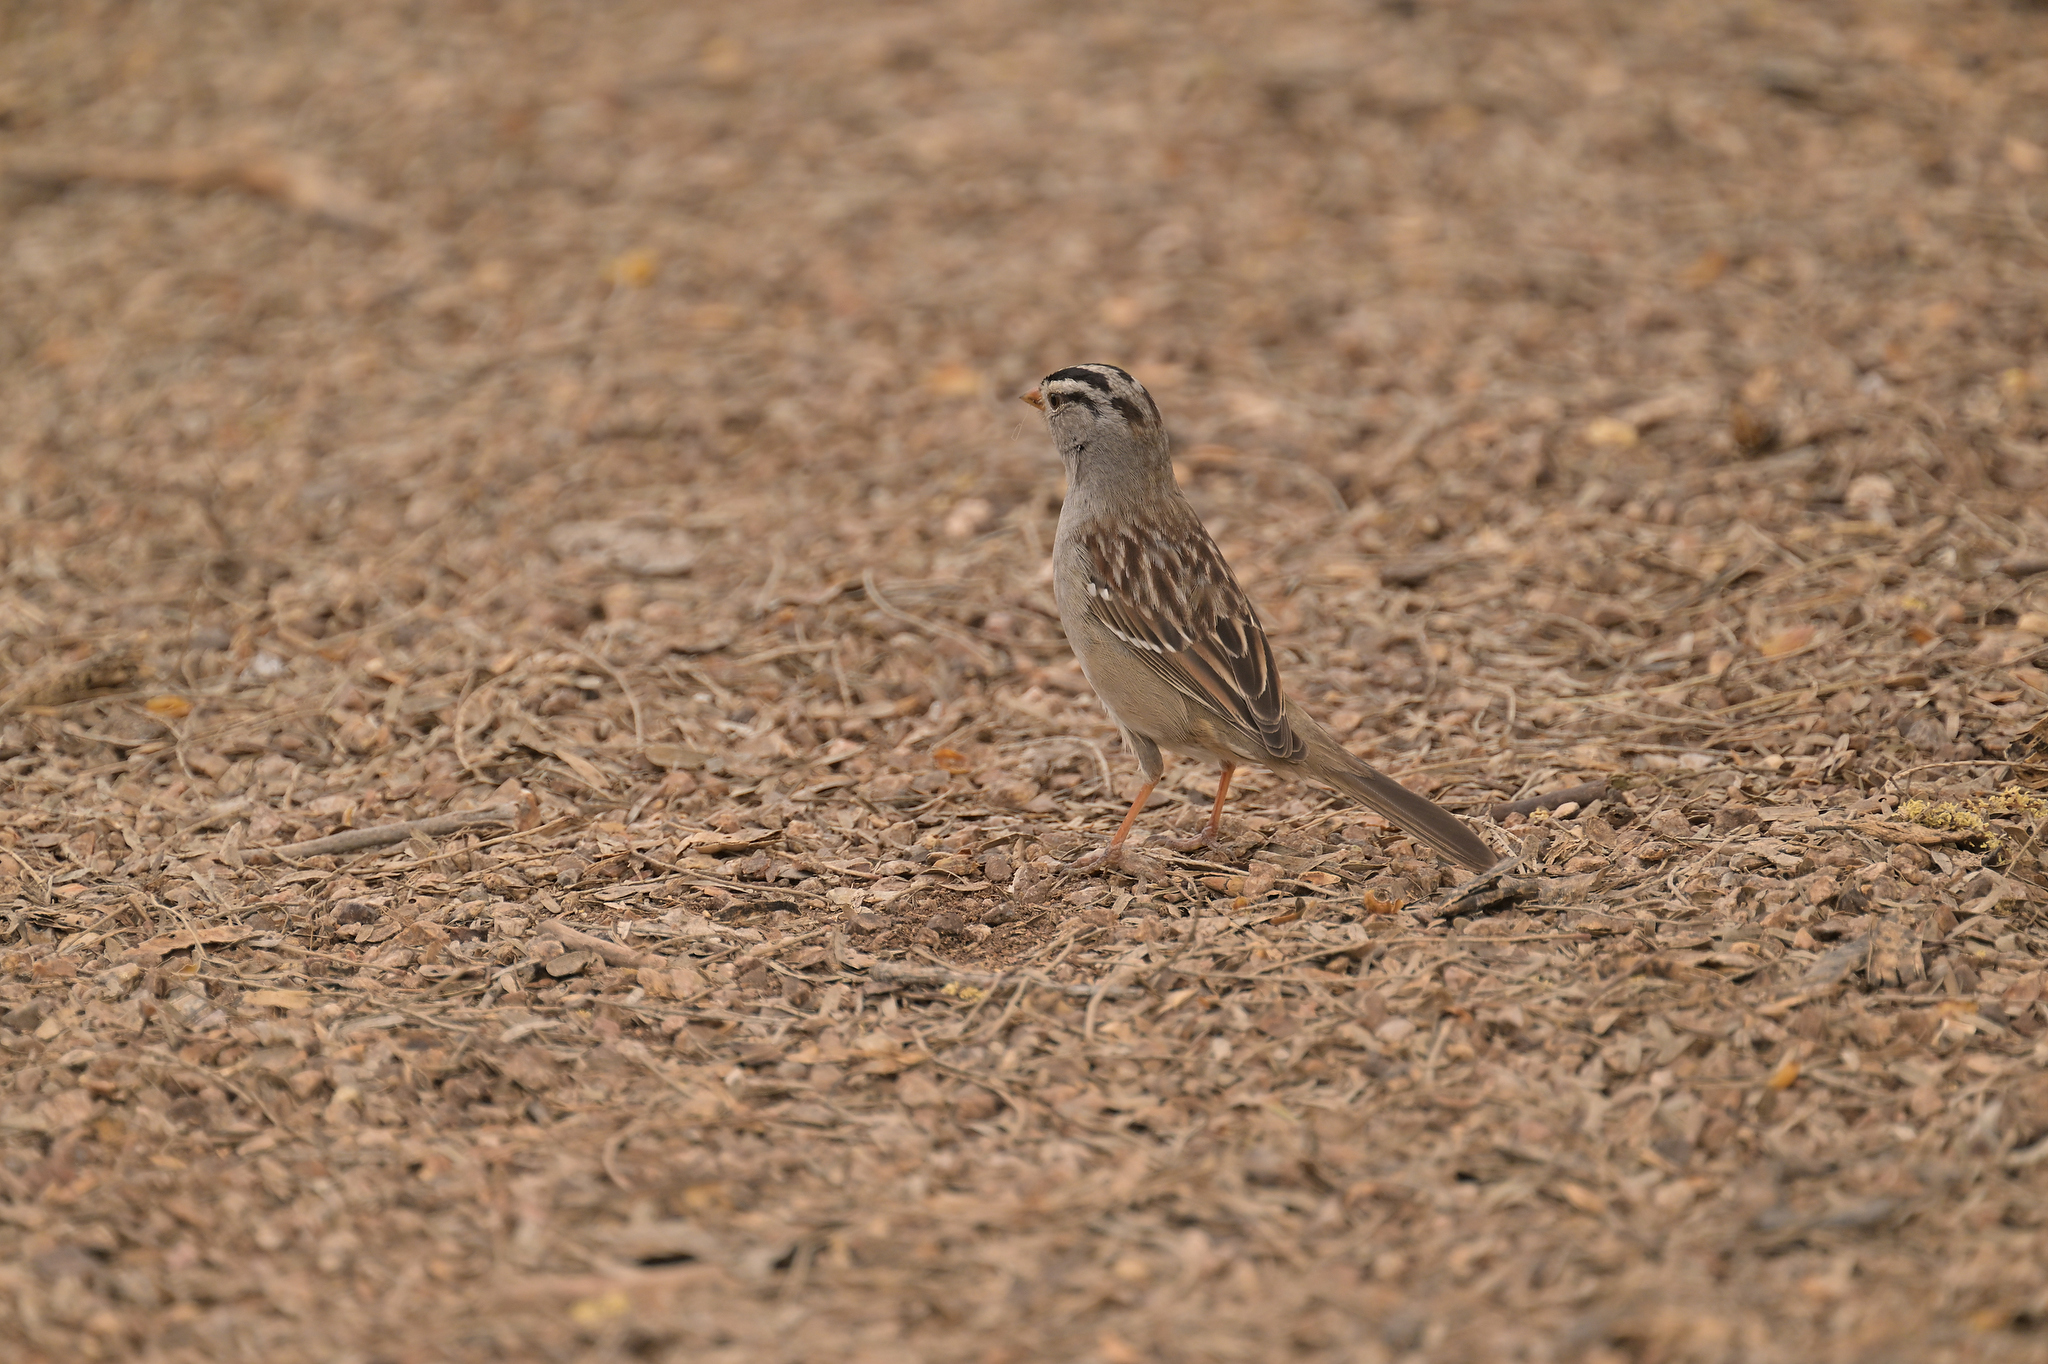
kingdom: Animalia
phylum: Chordata
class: Aves
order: Passeriformes
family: Passerellidae
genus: Zonotrichia
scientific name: Zonotrichia leucophrys
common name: White-crowned sparrow
